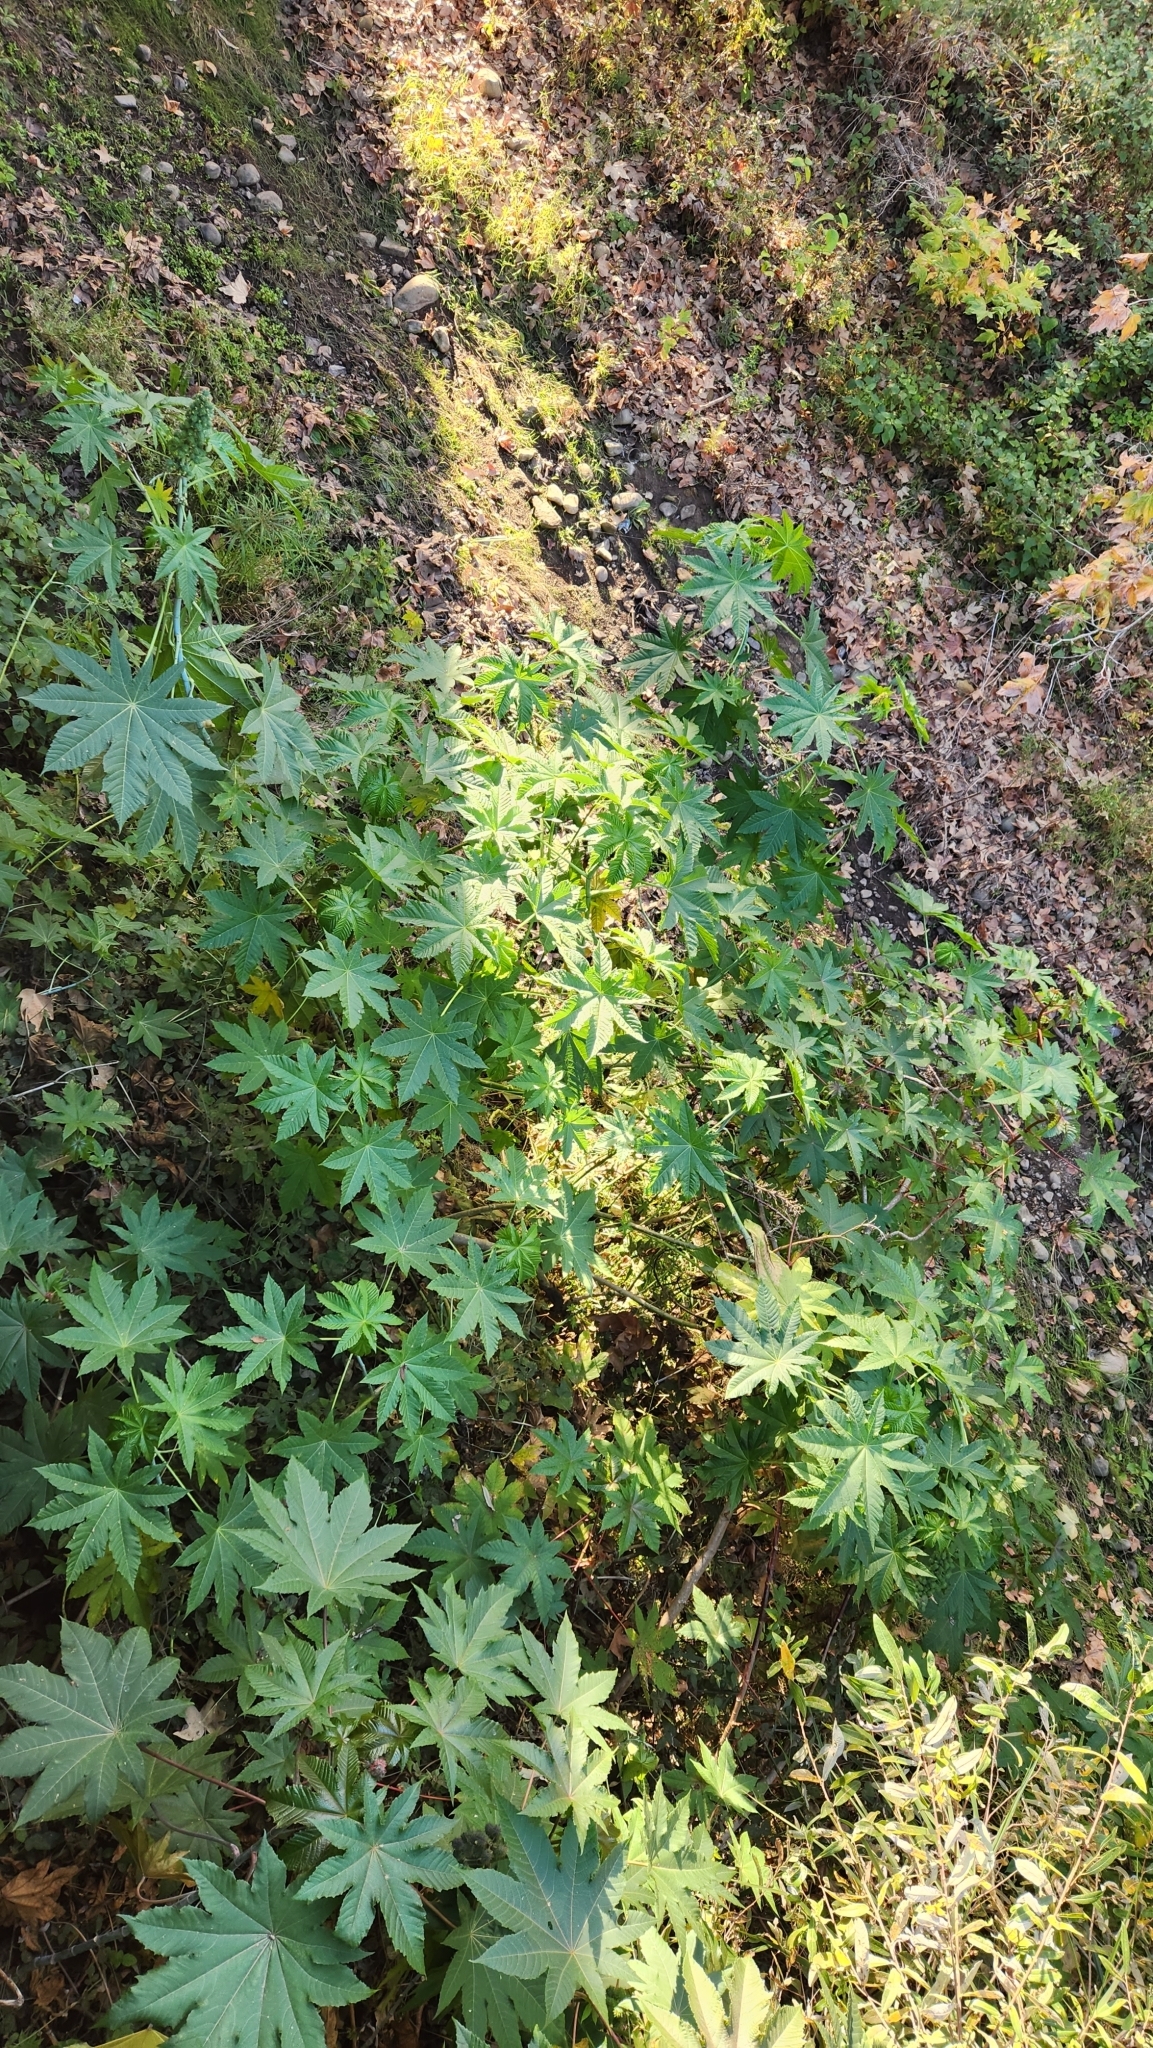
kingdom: Plantae
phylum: Tracheophyta
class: Magnoliopsida
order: Malpighiales
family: Euphorbiaceae
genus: Ricinus
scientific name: Ricinus communis
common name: Castor-oil-plant
